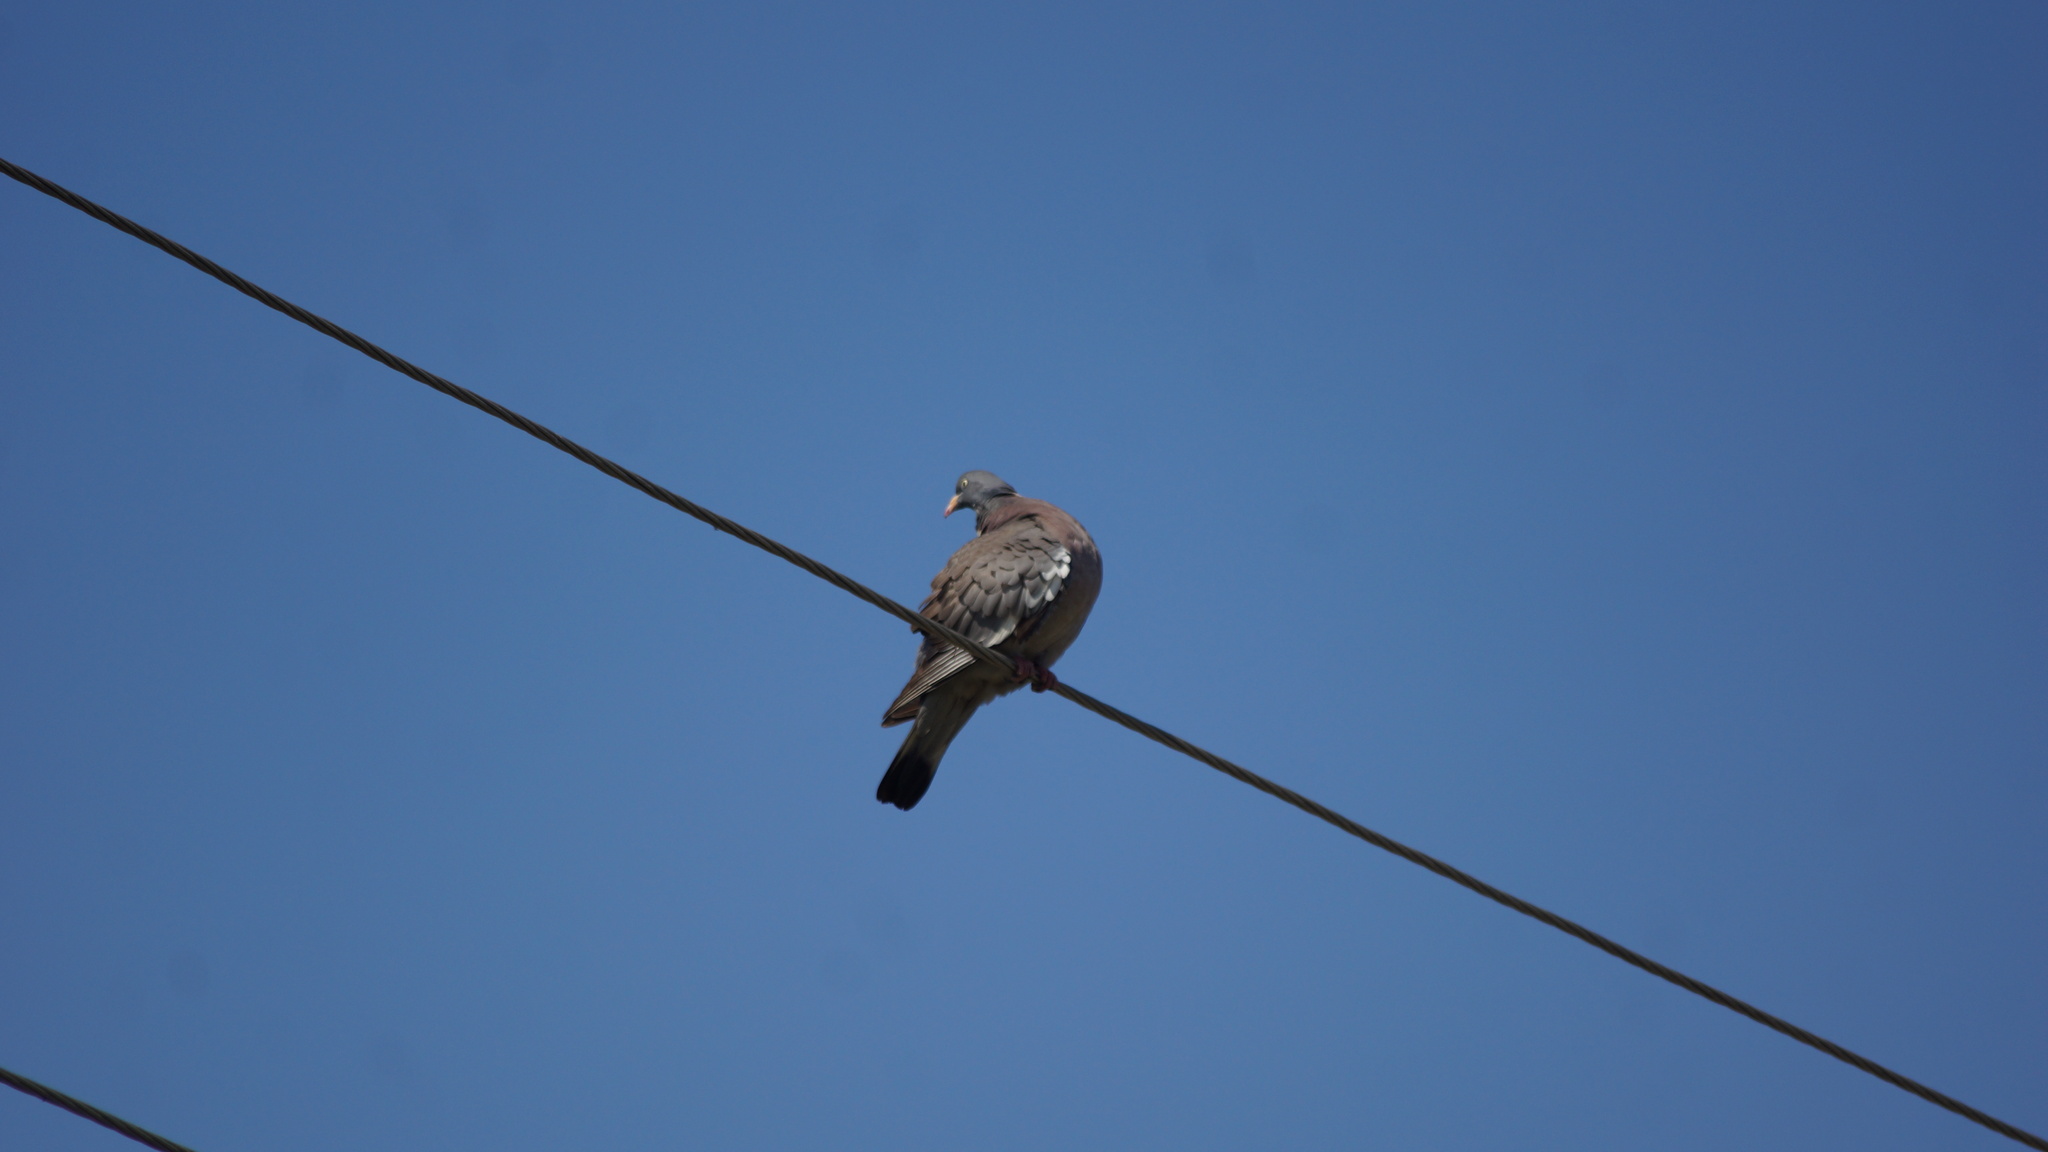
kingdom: Animalia
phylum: Chordata
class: Aves
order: Columbiformes
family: Columbidae
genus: Columba
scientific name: Columba palumbus
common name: Common wood pigeon
